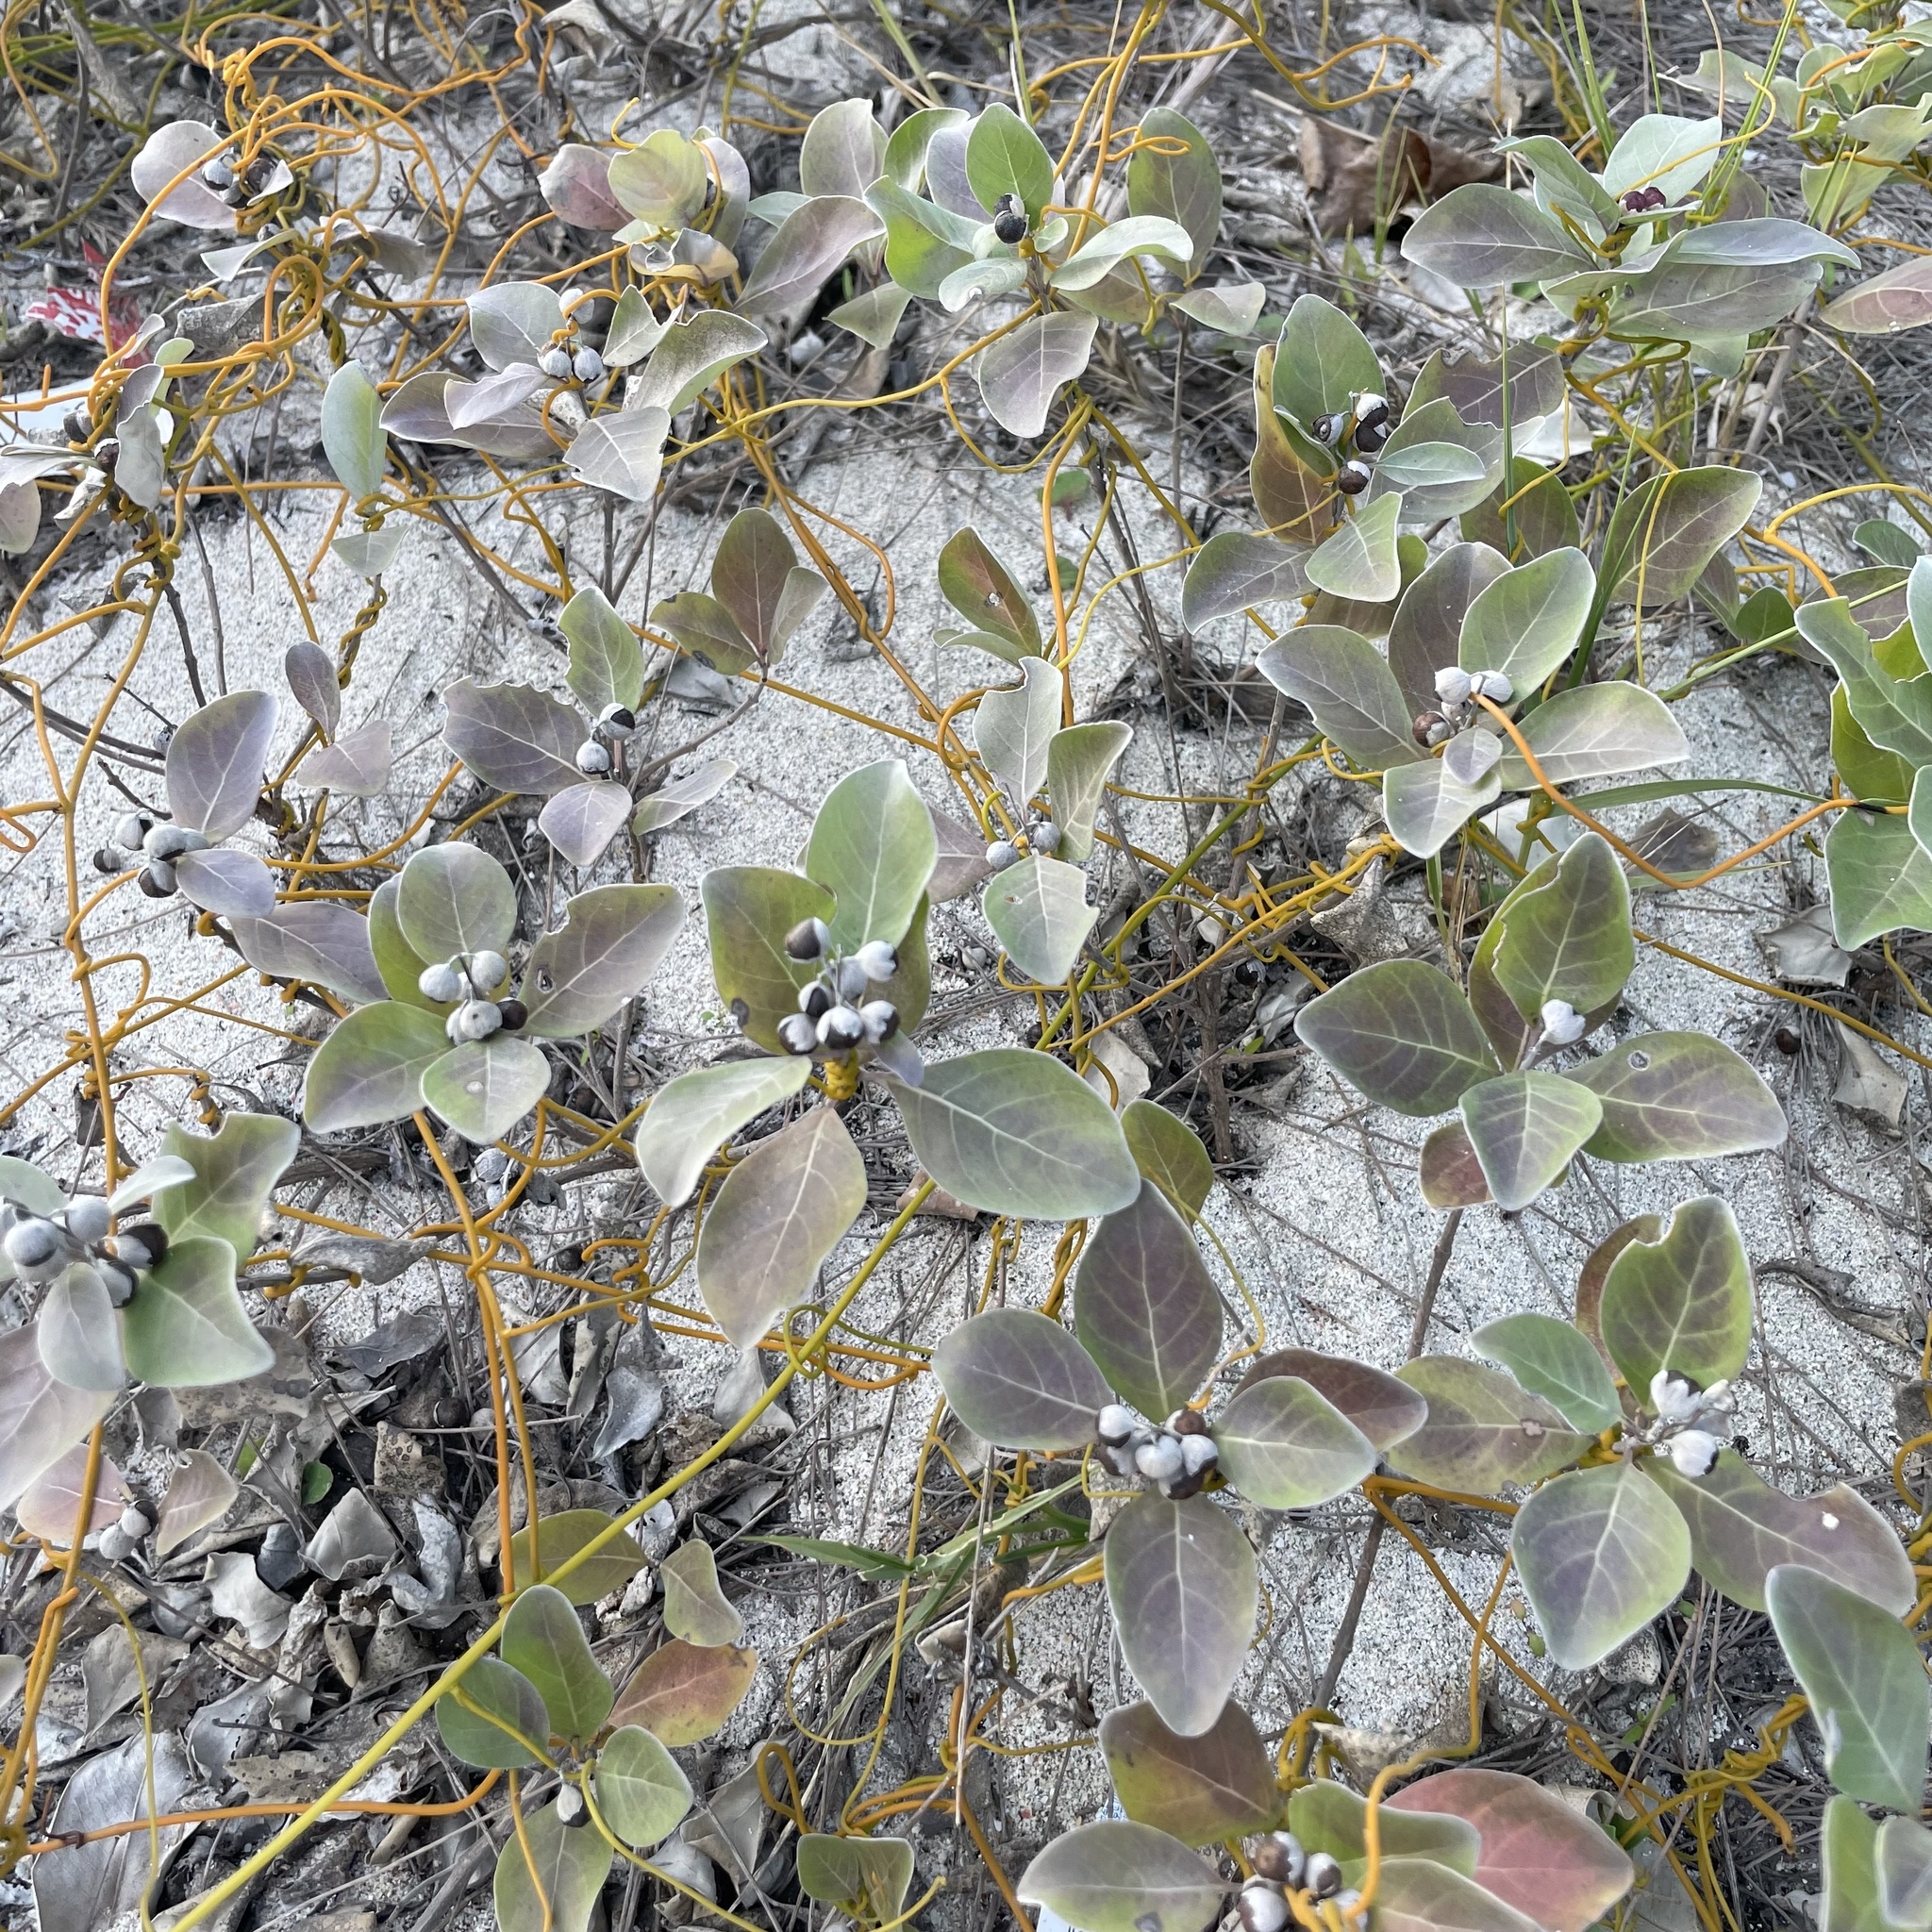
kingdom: Plantae
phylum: Tracheophyta
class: Magnoliopsida
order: Lamiales
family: Lamiaceae
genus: Vitex
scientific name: Vitex rotundifolia
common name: Beach vitex
